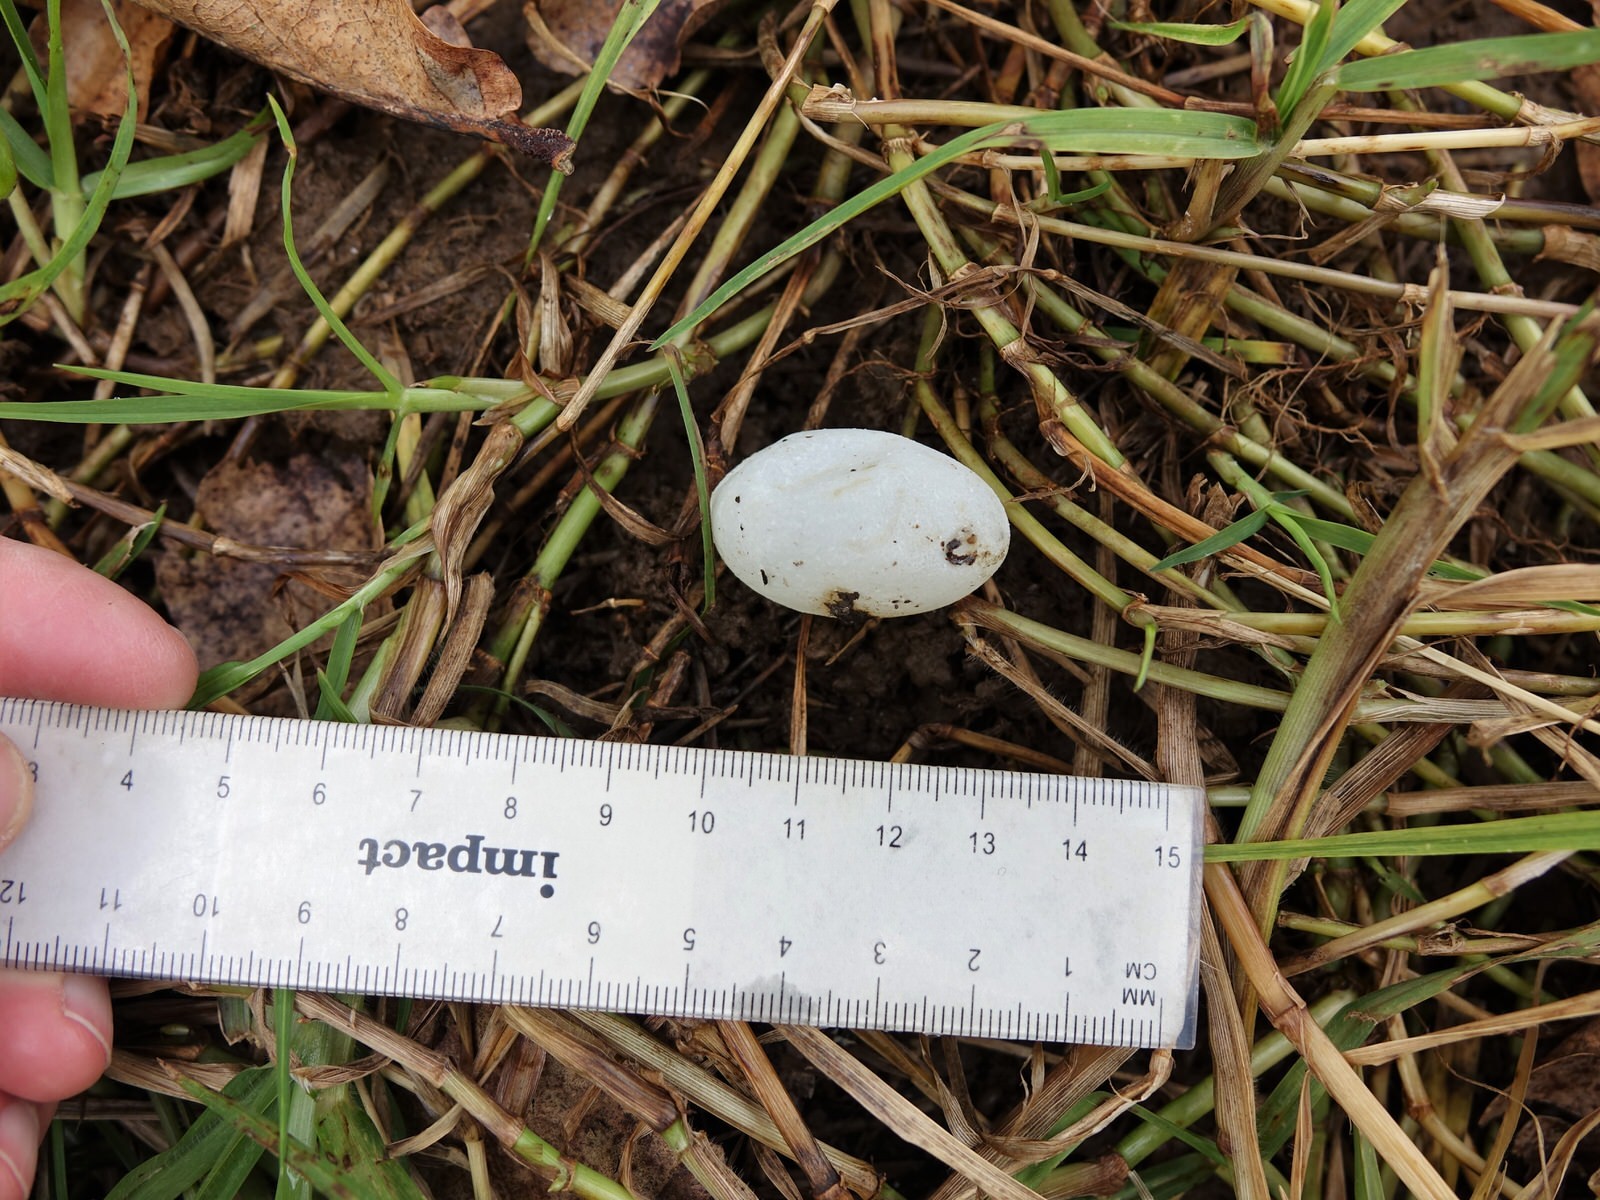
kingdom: Animalia
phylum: Chordata
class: Aves
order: Charadriiformes
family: Charadriidae
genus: Vanellus
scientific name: Vanellus miles
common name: Masked lapwing
